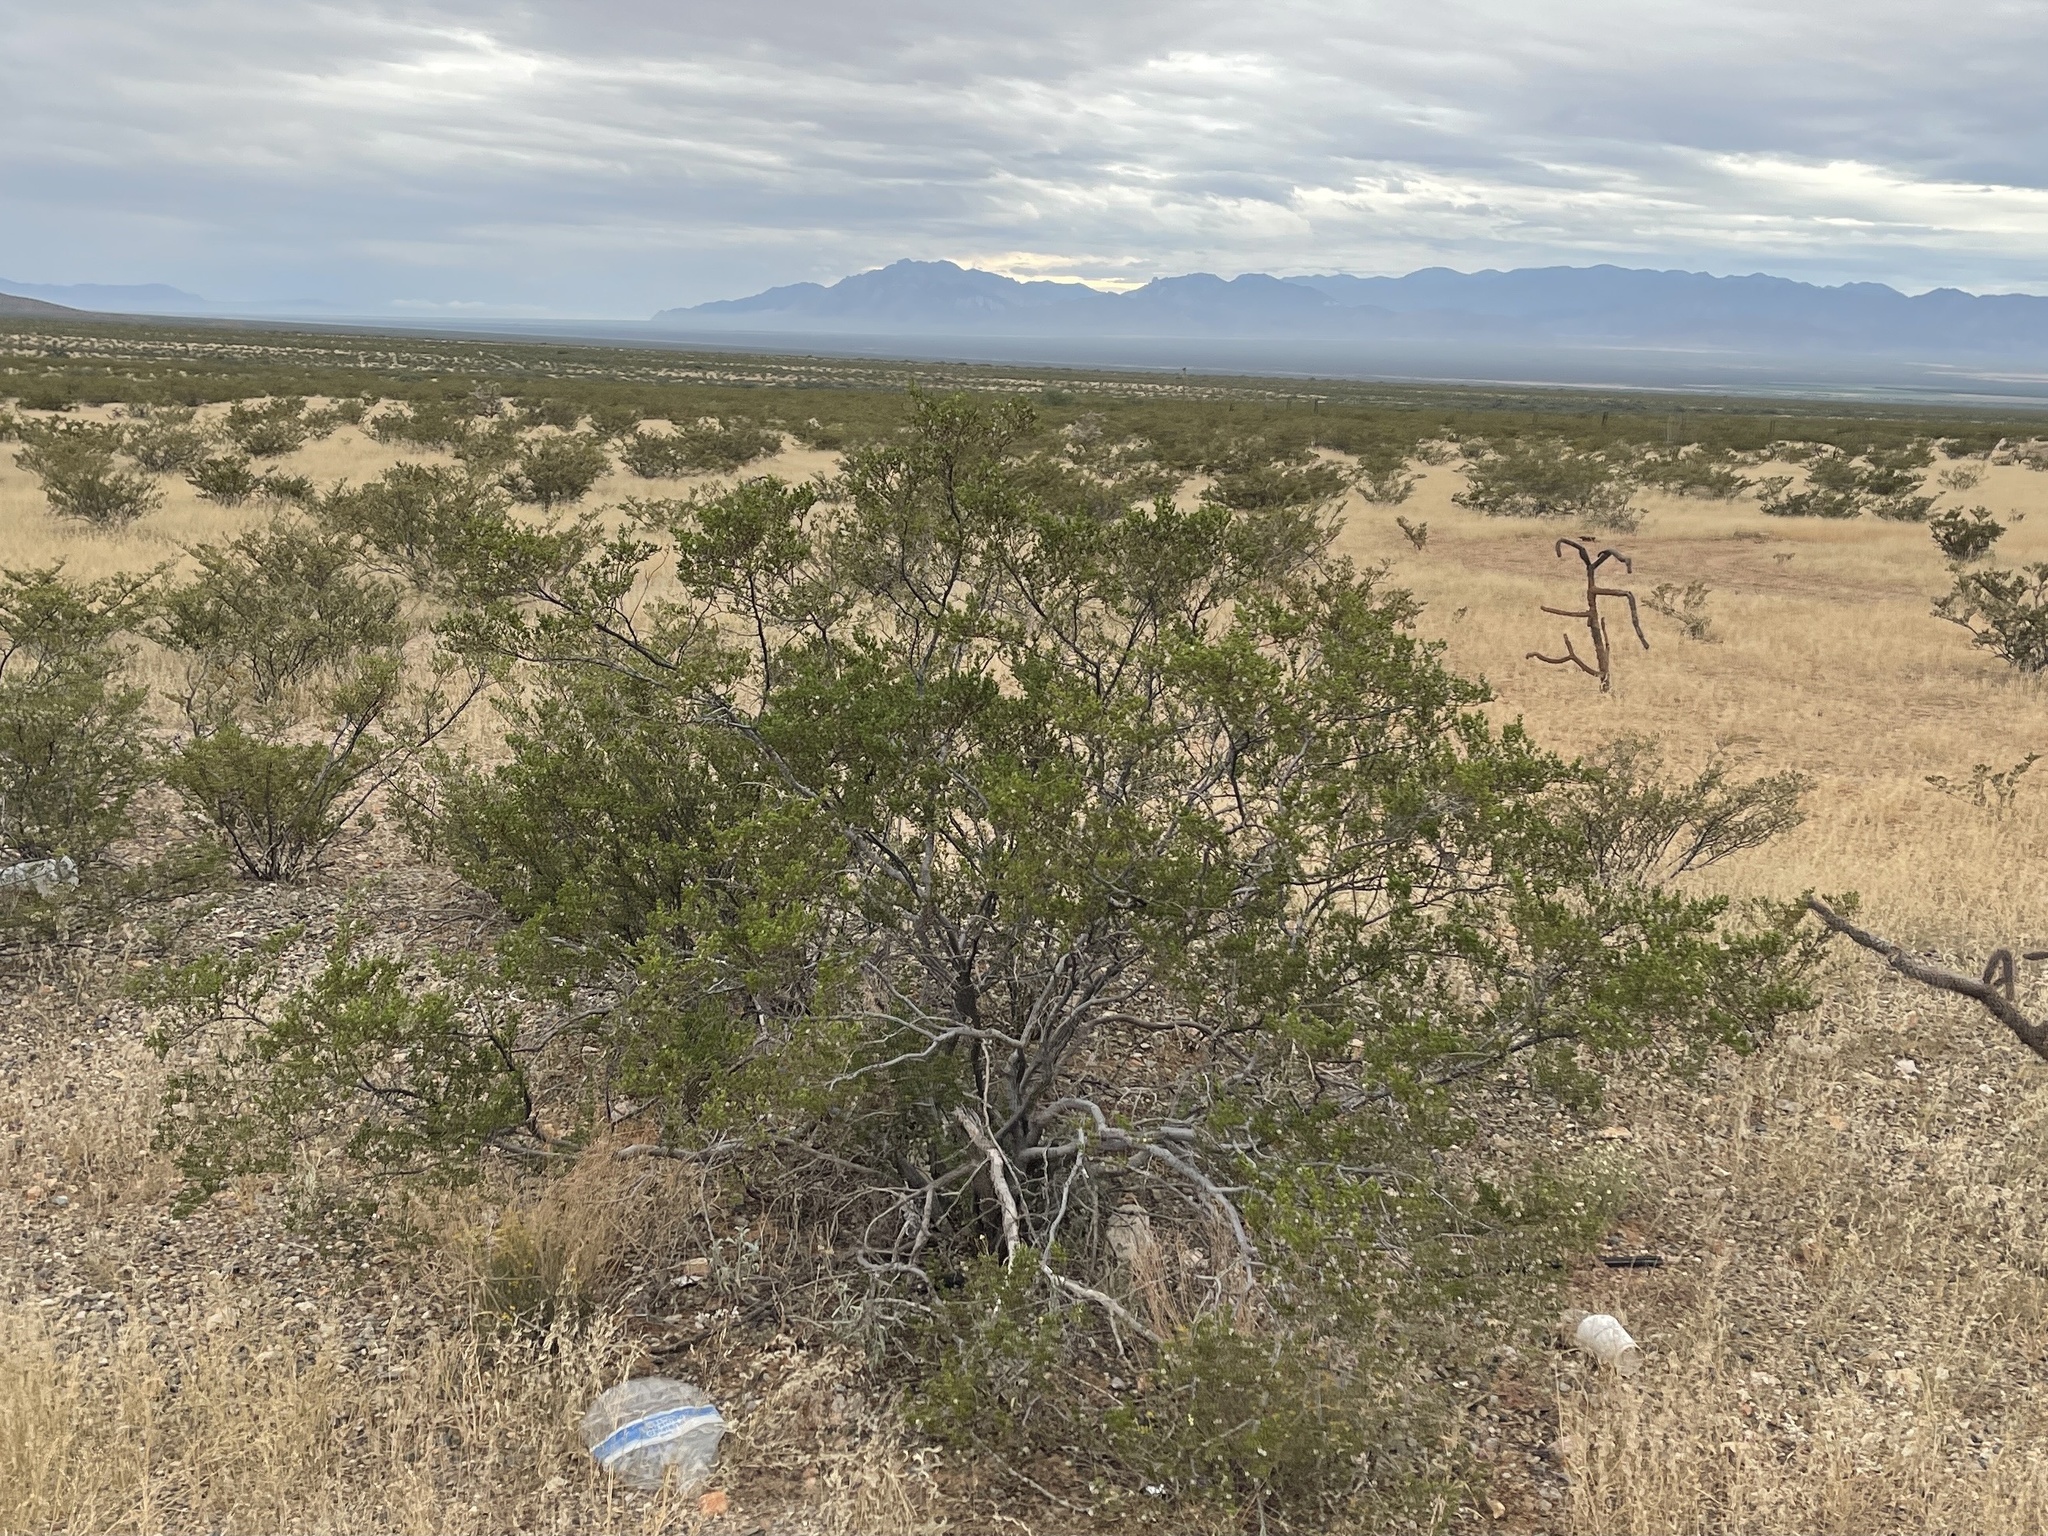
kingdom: Plantae
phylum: Tracheophyta
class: Magnoliopsida
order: Zygophyllales
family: Zygophyllaceae
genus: Larrea
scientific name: Larrea tridentata
